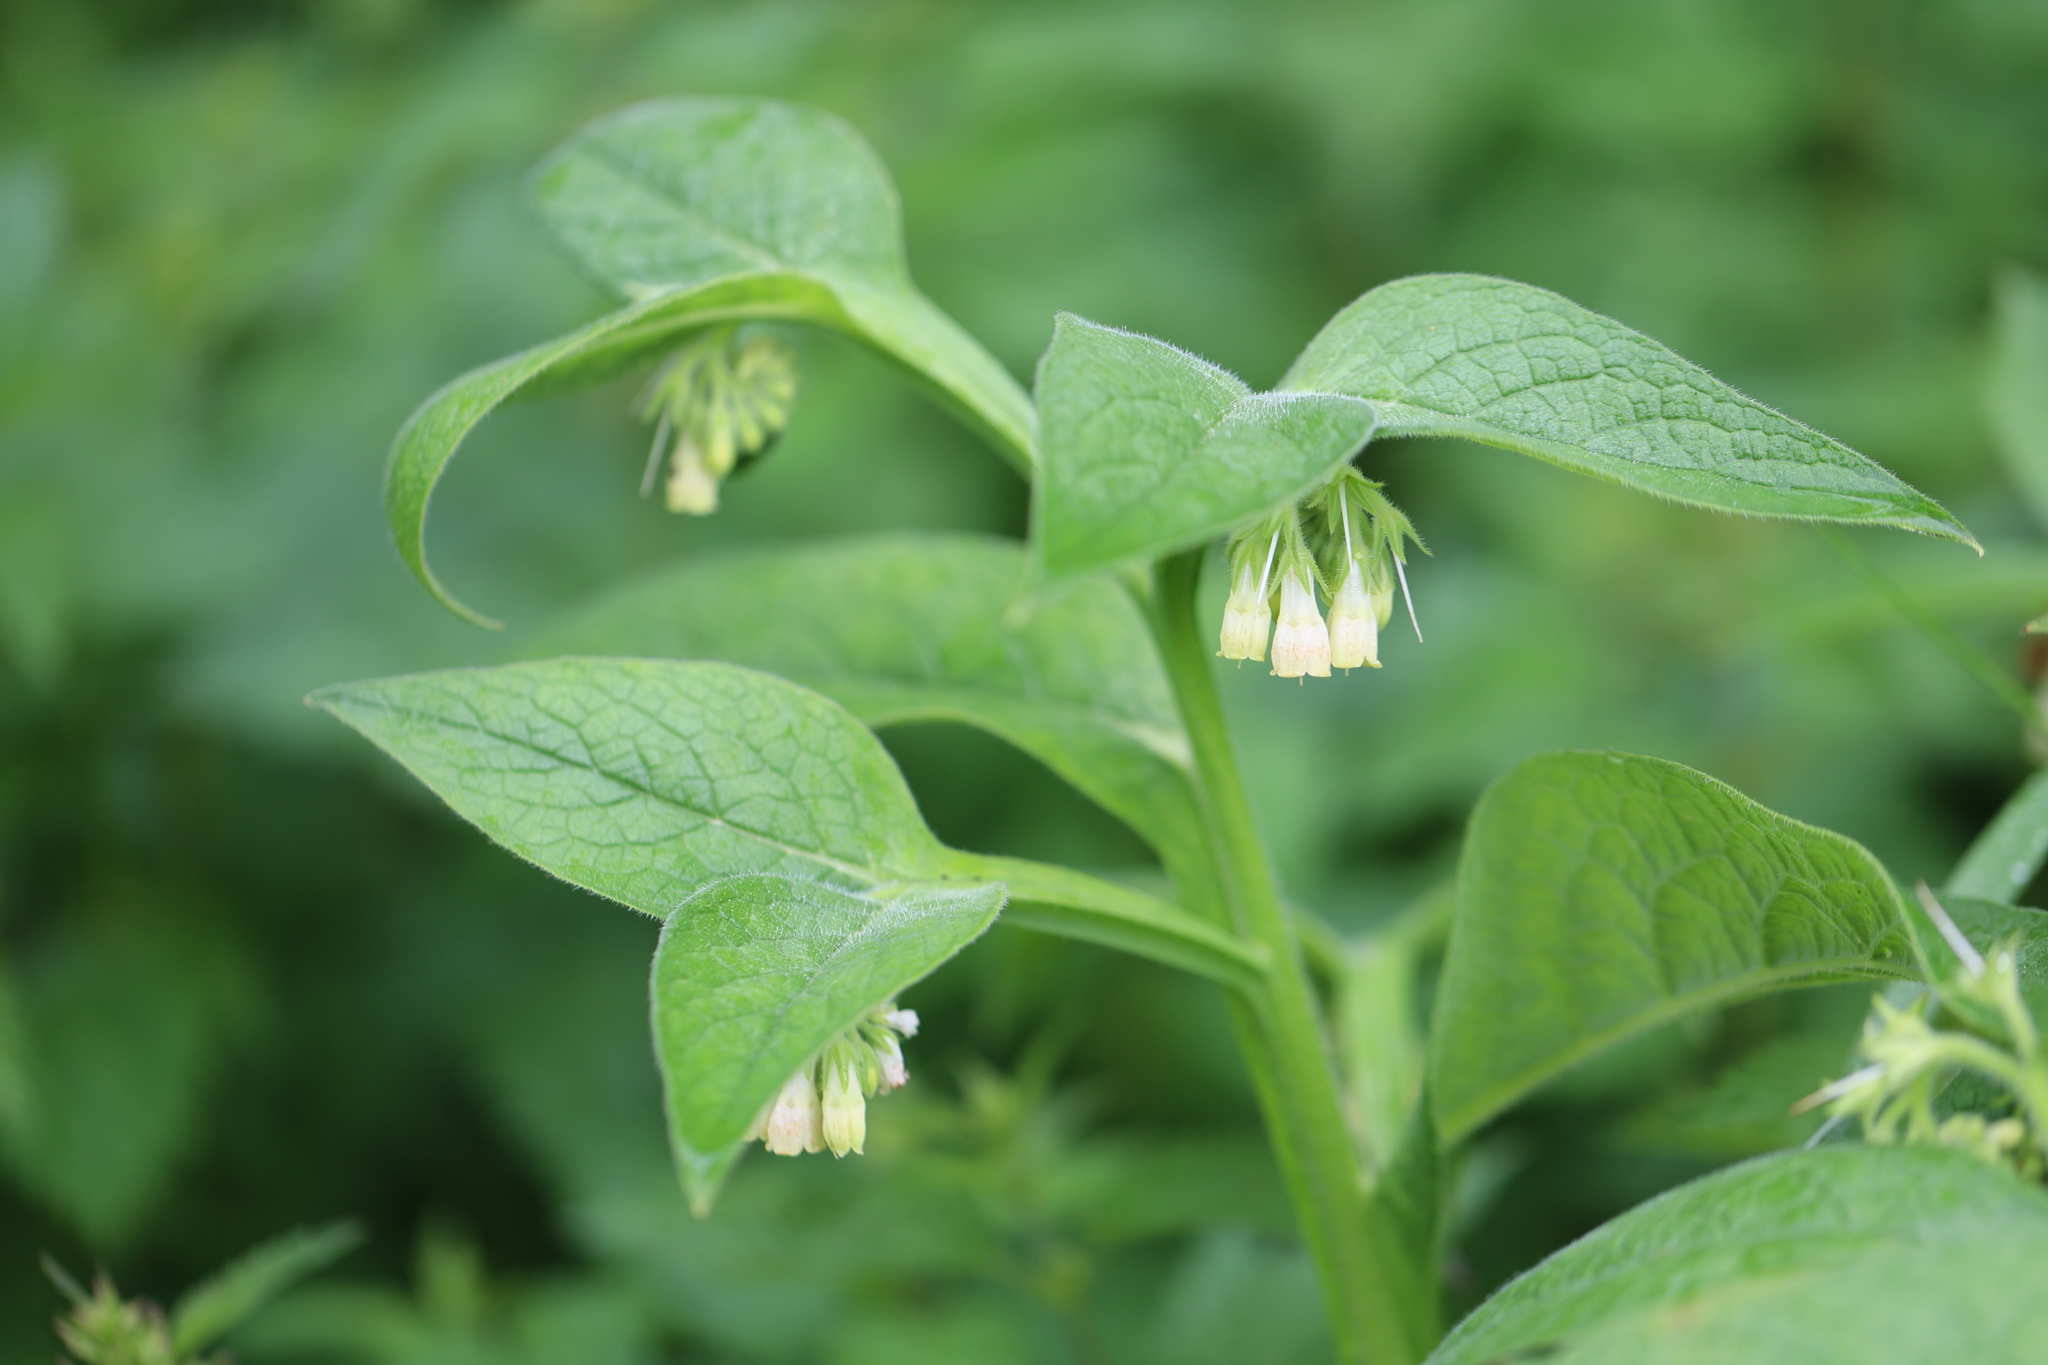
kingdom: Plantae
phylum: Tracheophyta
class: Magnoliopsida
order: Boraginales
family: Boraginaceae
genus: Symphytum
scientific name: Symphytum officinale
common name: Common comfrey
